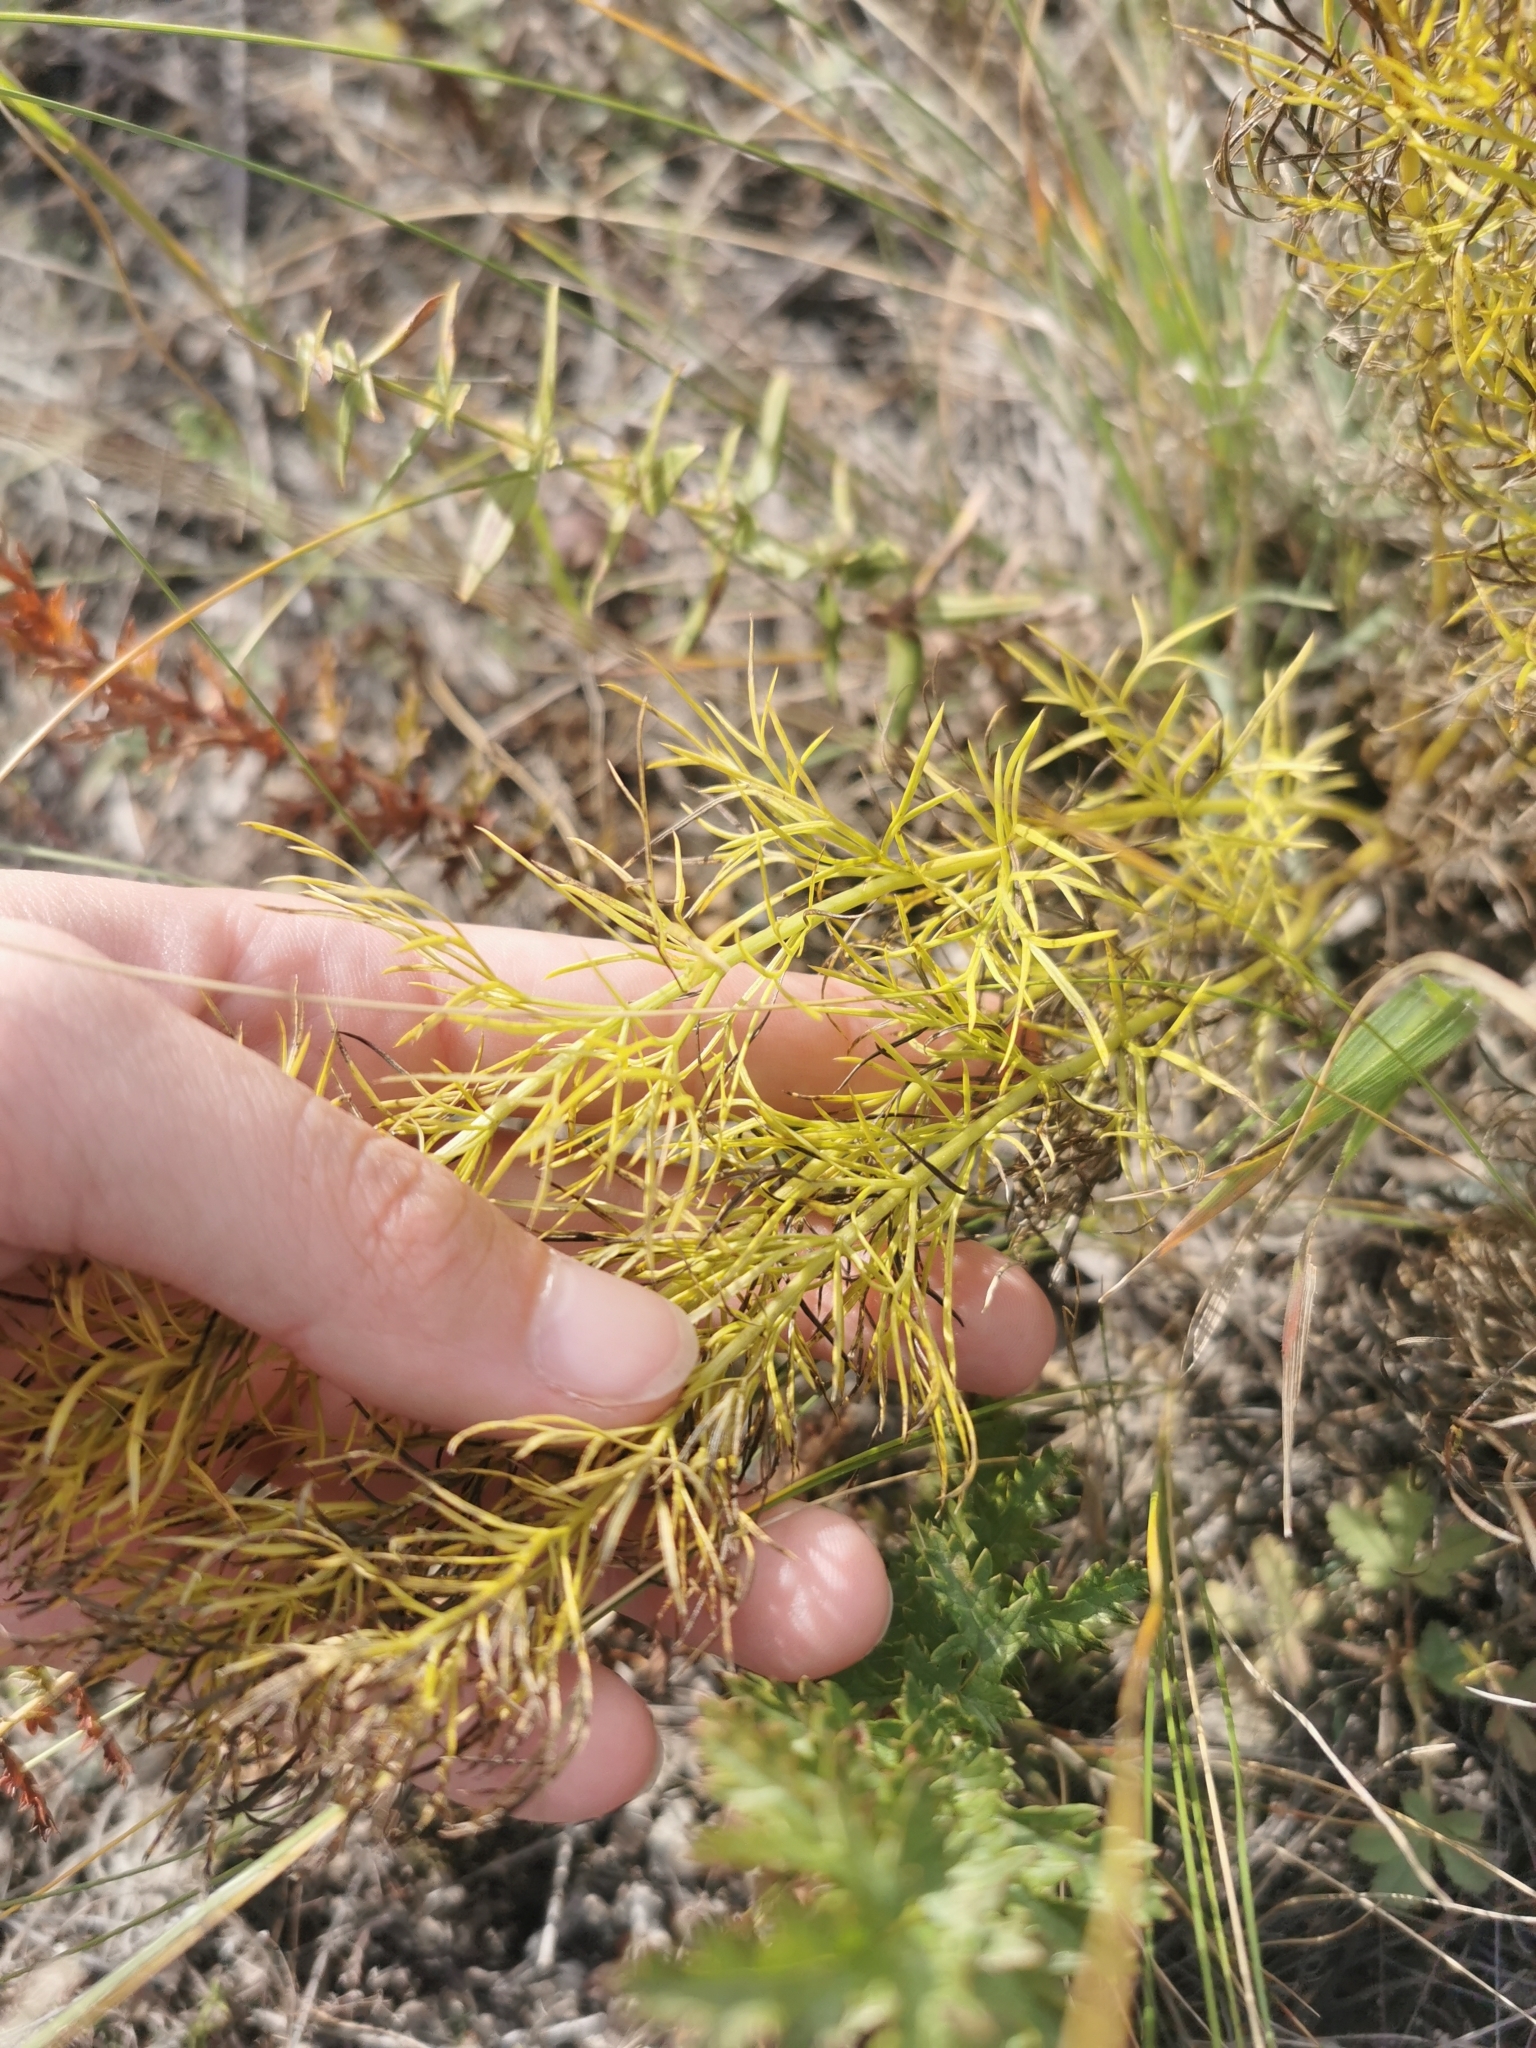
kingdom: Plantae
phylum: Tracheophyta
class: Magnoliopsida
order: Ranunculales
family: Ranunculaceae
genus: Adonis
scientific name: Adonis vernalis
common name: Yellow pheasants-eye
